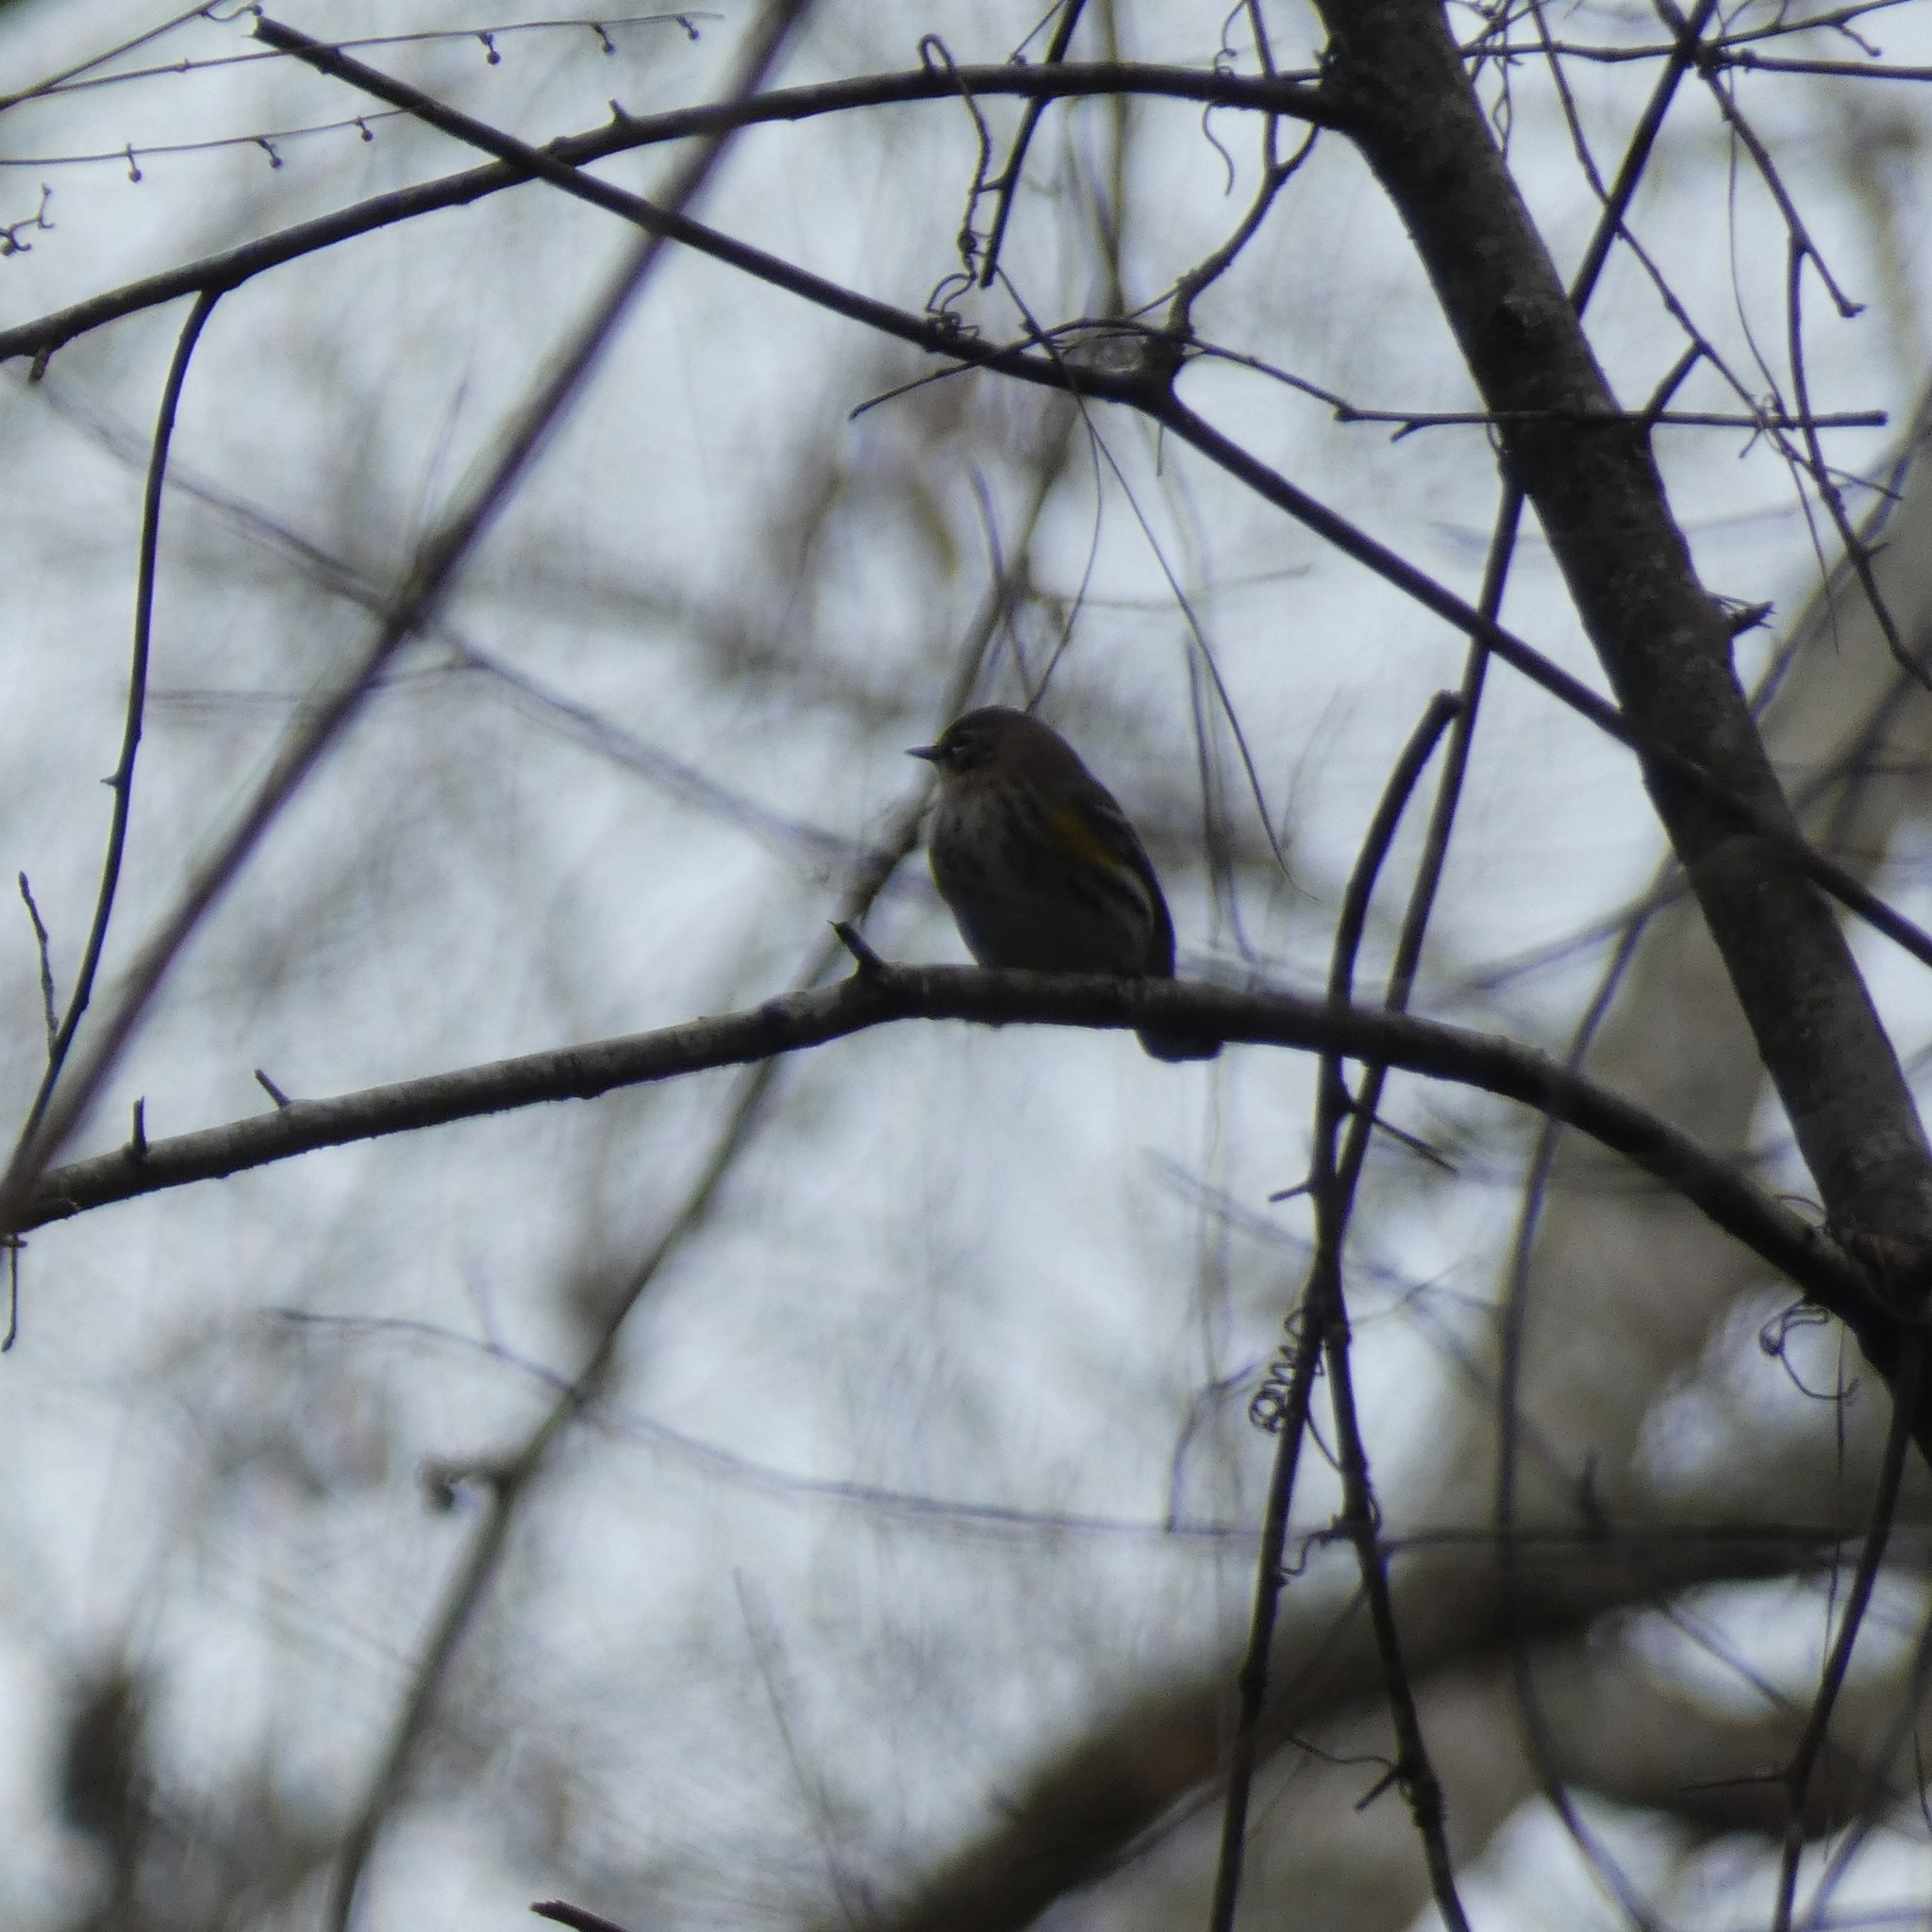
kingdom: Animalia
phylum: Chordata
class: Aves
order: Passeriformes
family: Parulidae
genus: Setophaga
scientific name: Setophaga coronata
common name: Myrtle warbler
